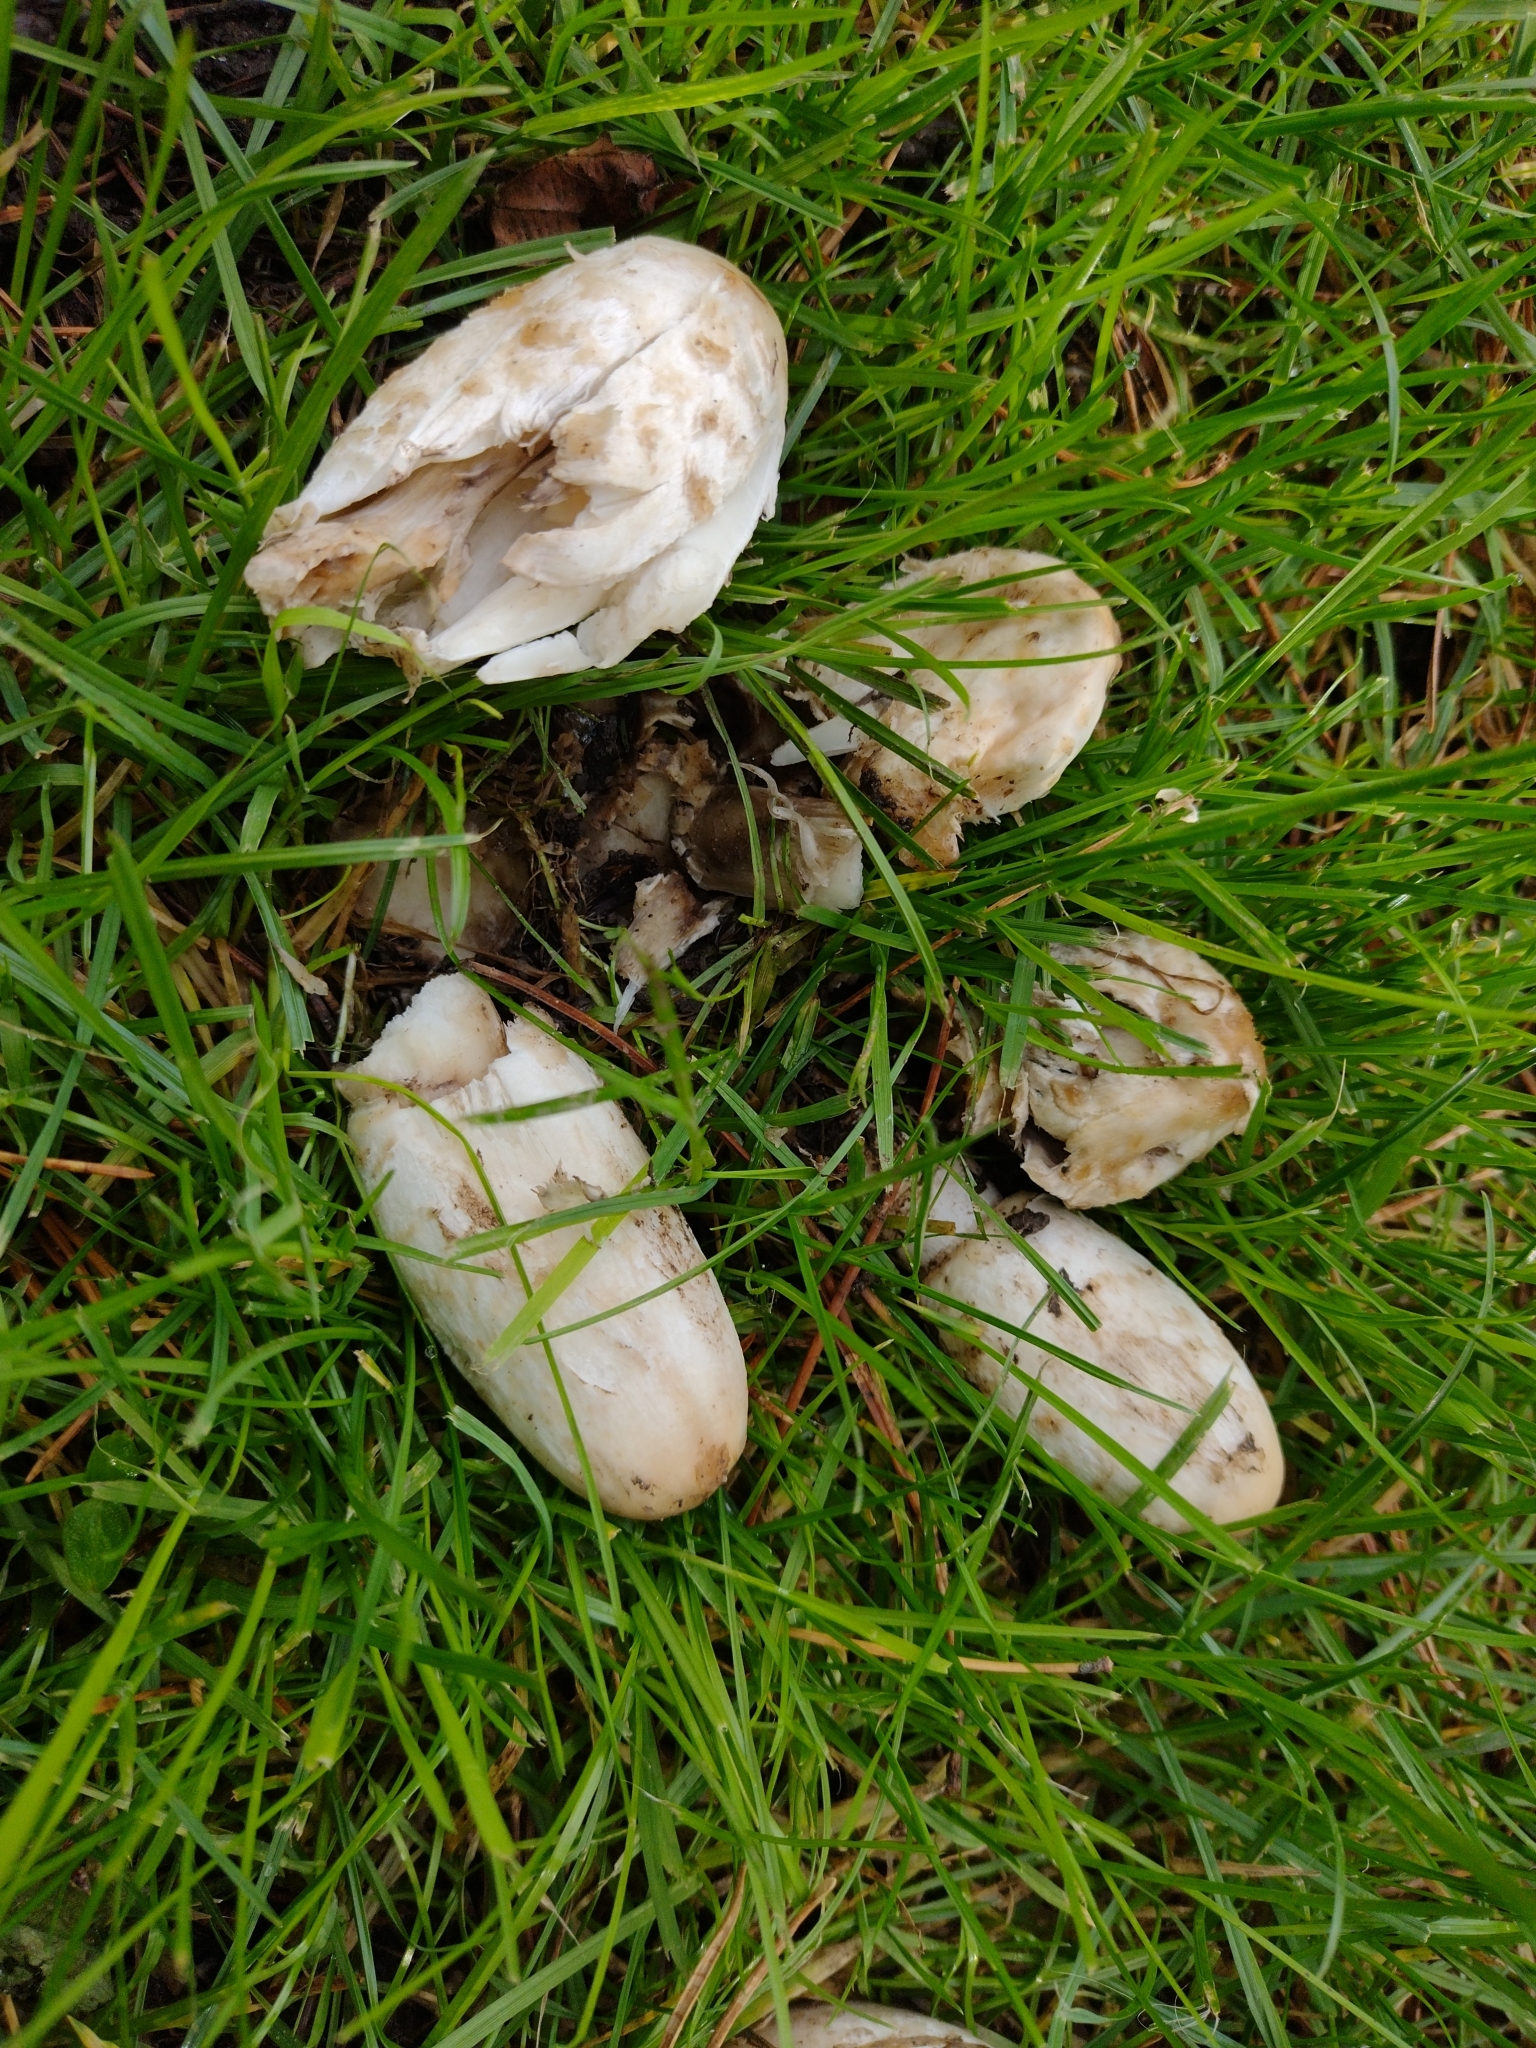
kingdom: Fungi
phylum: Basidiomycota
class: Agaricomycetes
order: Agaricales
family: Agaricaceae
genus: Coprinus
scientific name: Coprinus comatus
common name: Lawyer's wig
